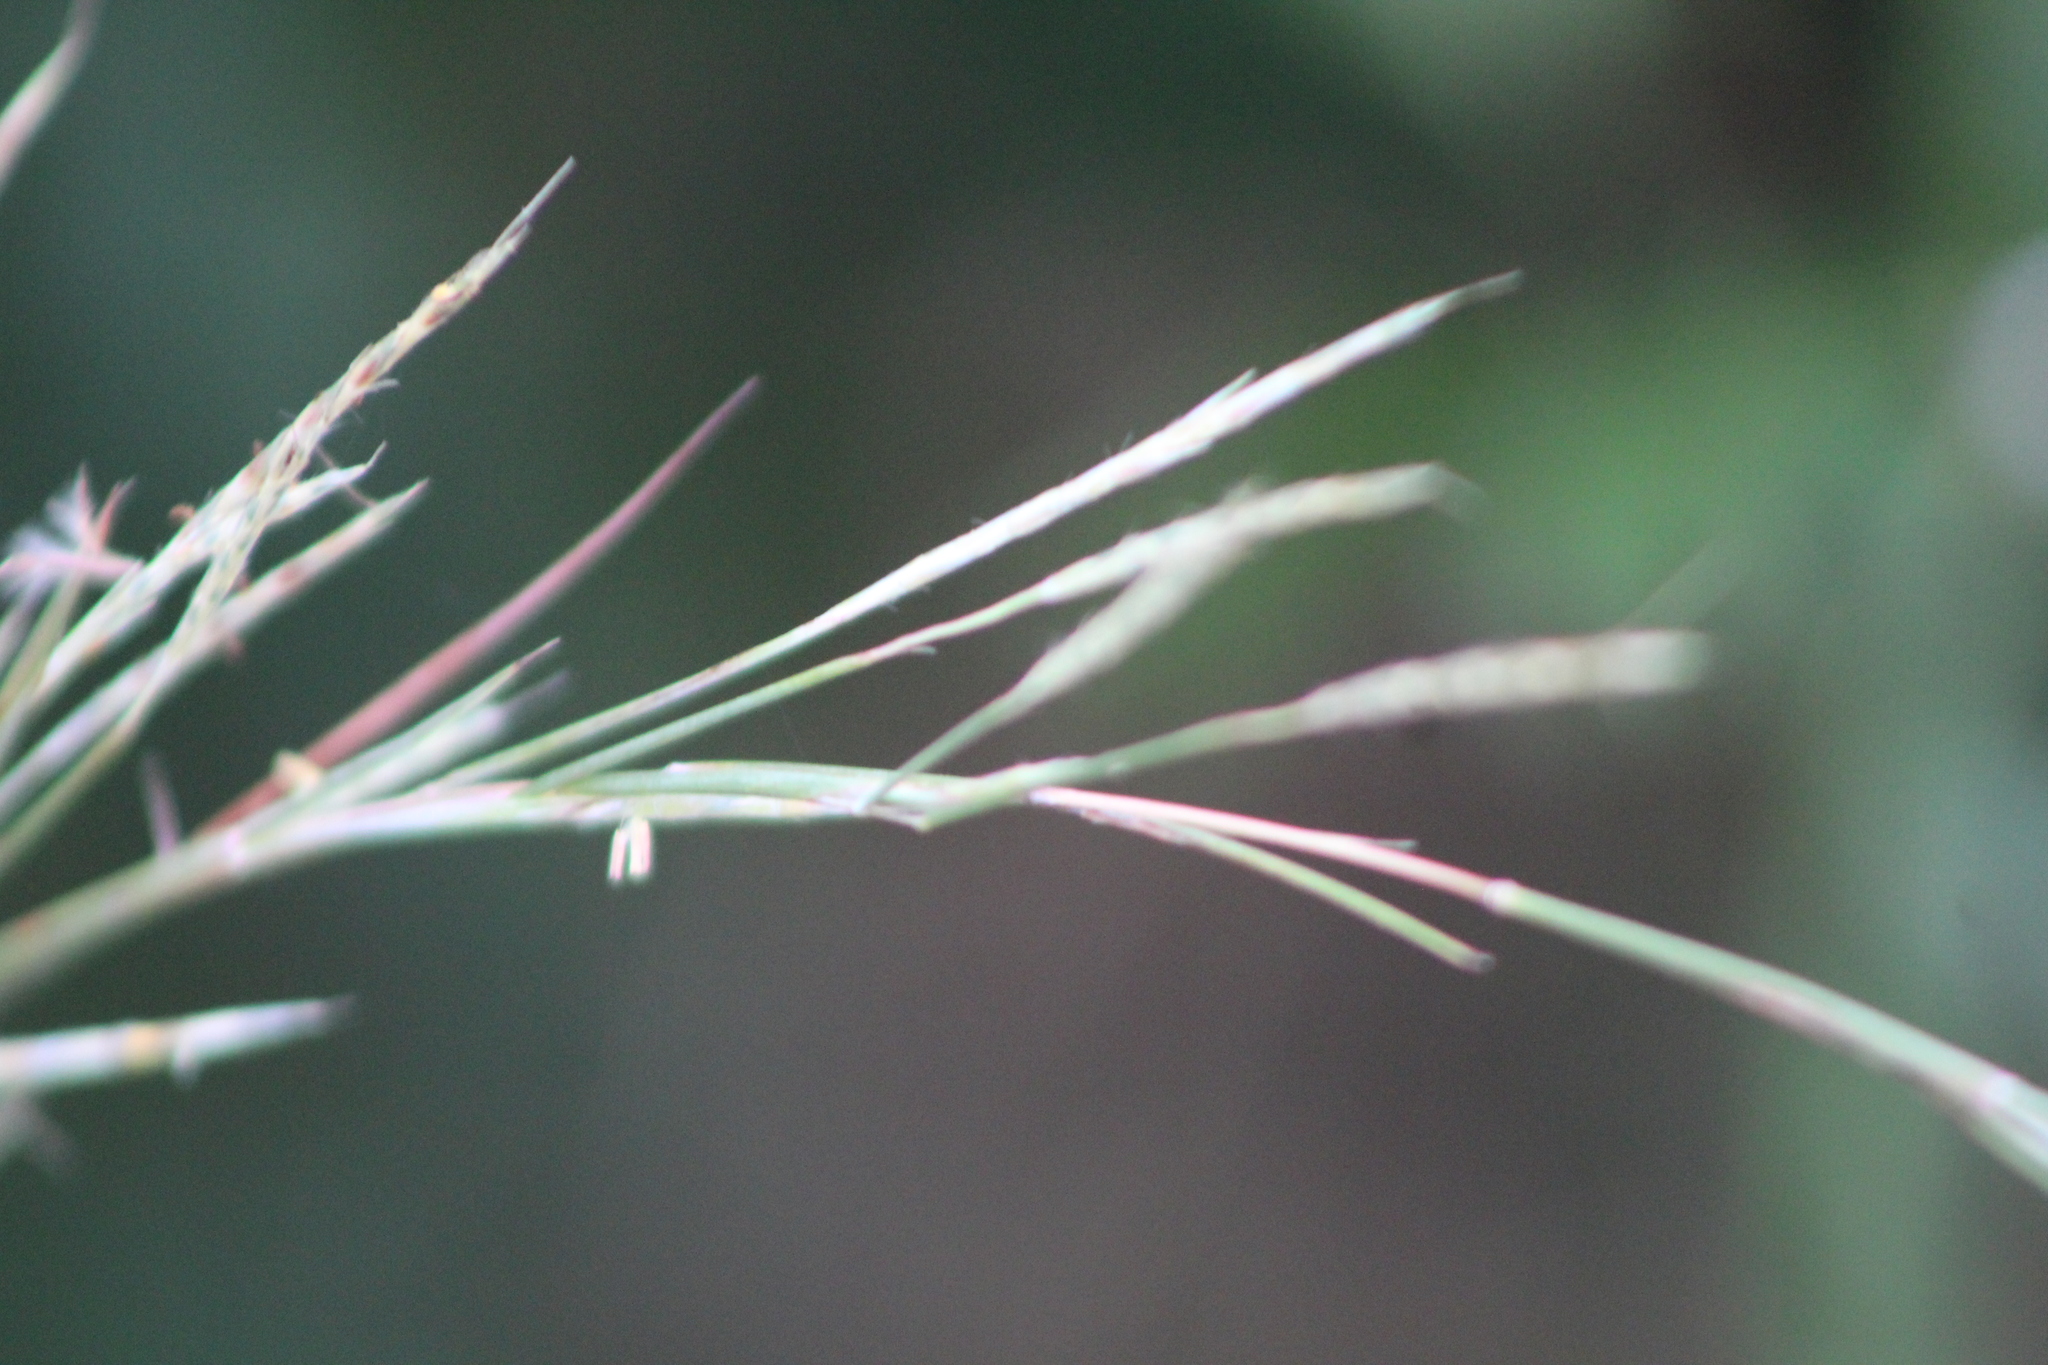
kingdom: Plantae
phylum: Tracheophyta
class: Liliopsida
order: Poales
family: Poaceae
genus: Schizachyrium
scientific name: Schizachyrium scoparium
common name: Little bluestem
